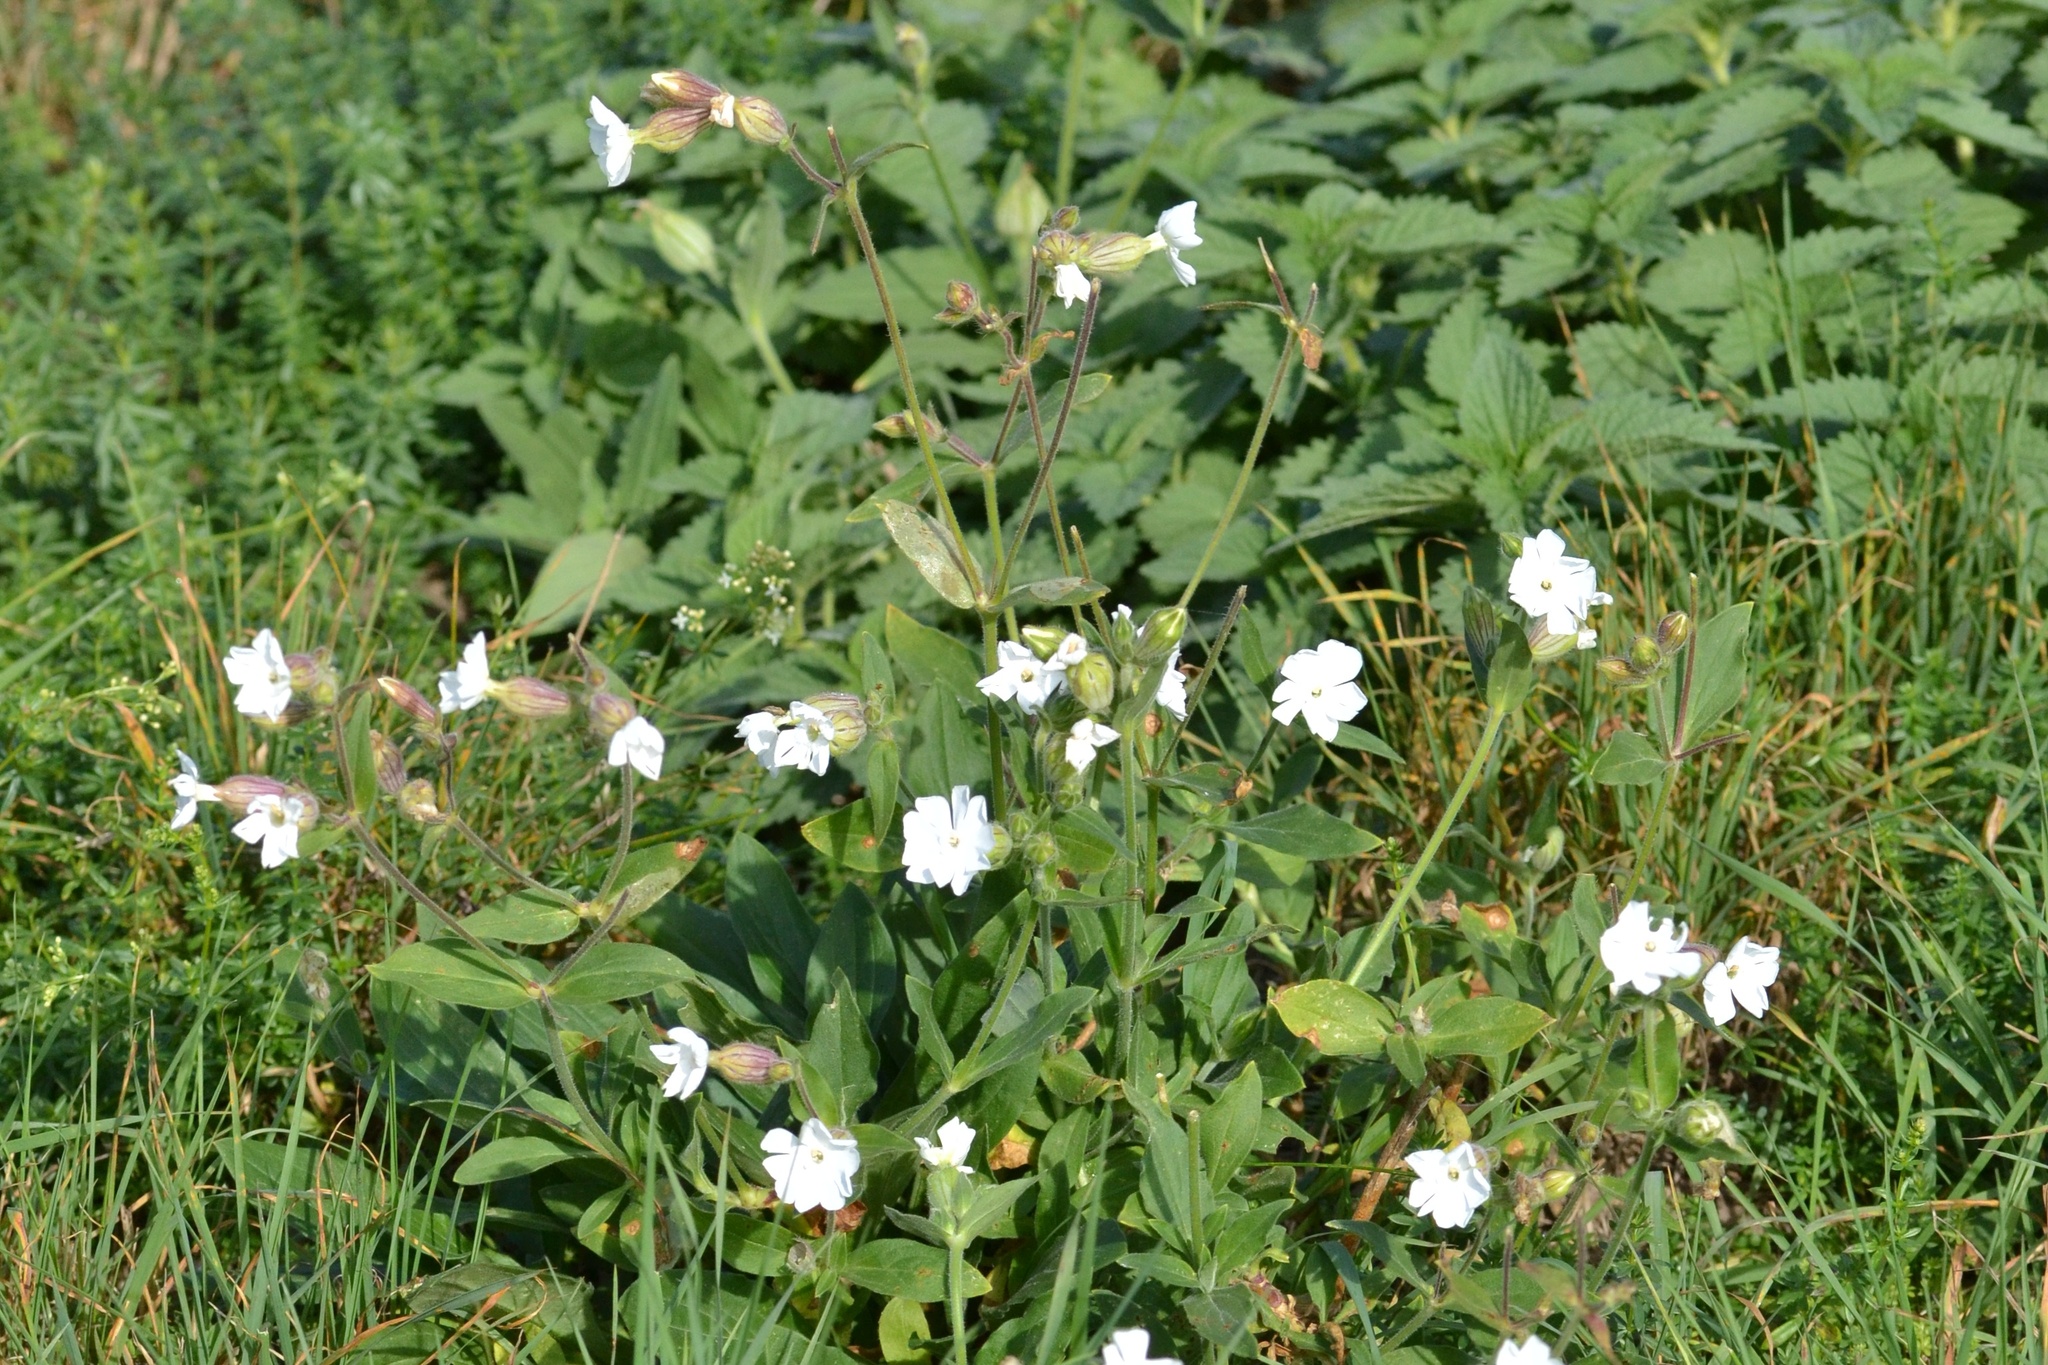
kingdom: Plantae
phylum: Tracheophyta
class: Magnoliopsida
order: Caryophyllales
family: Caryophyllaceae
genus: Silene
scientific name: Silene latifolia
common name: White campion
